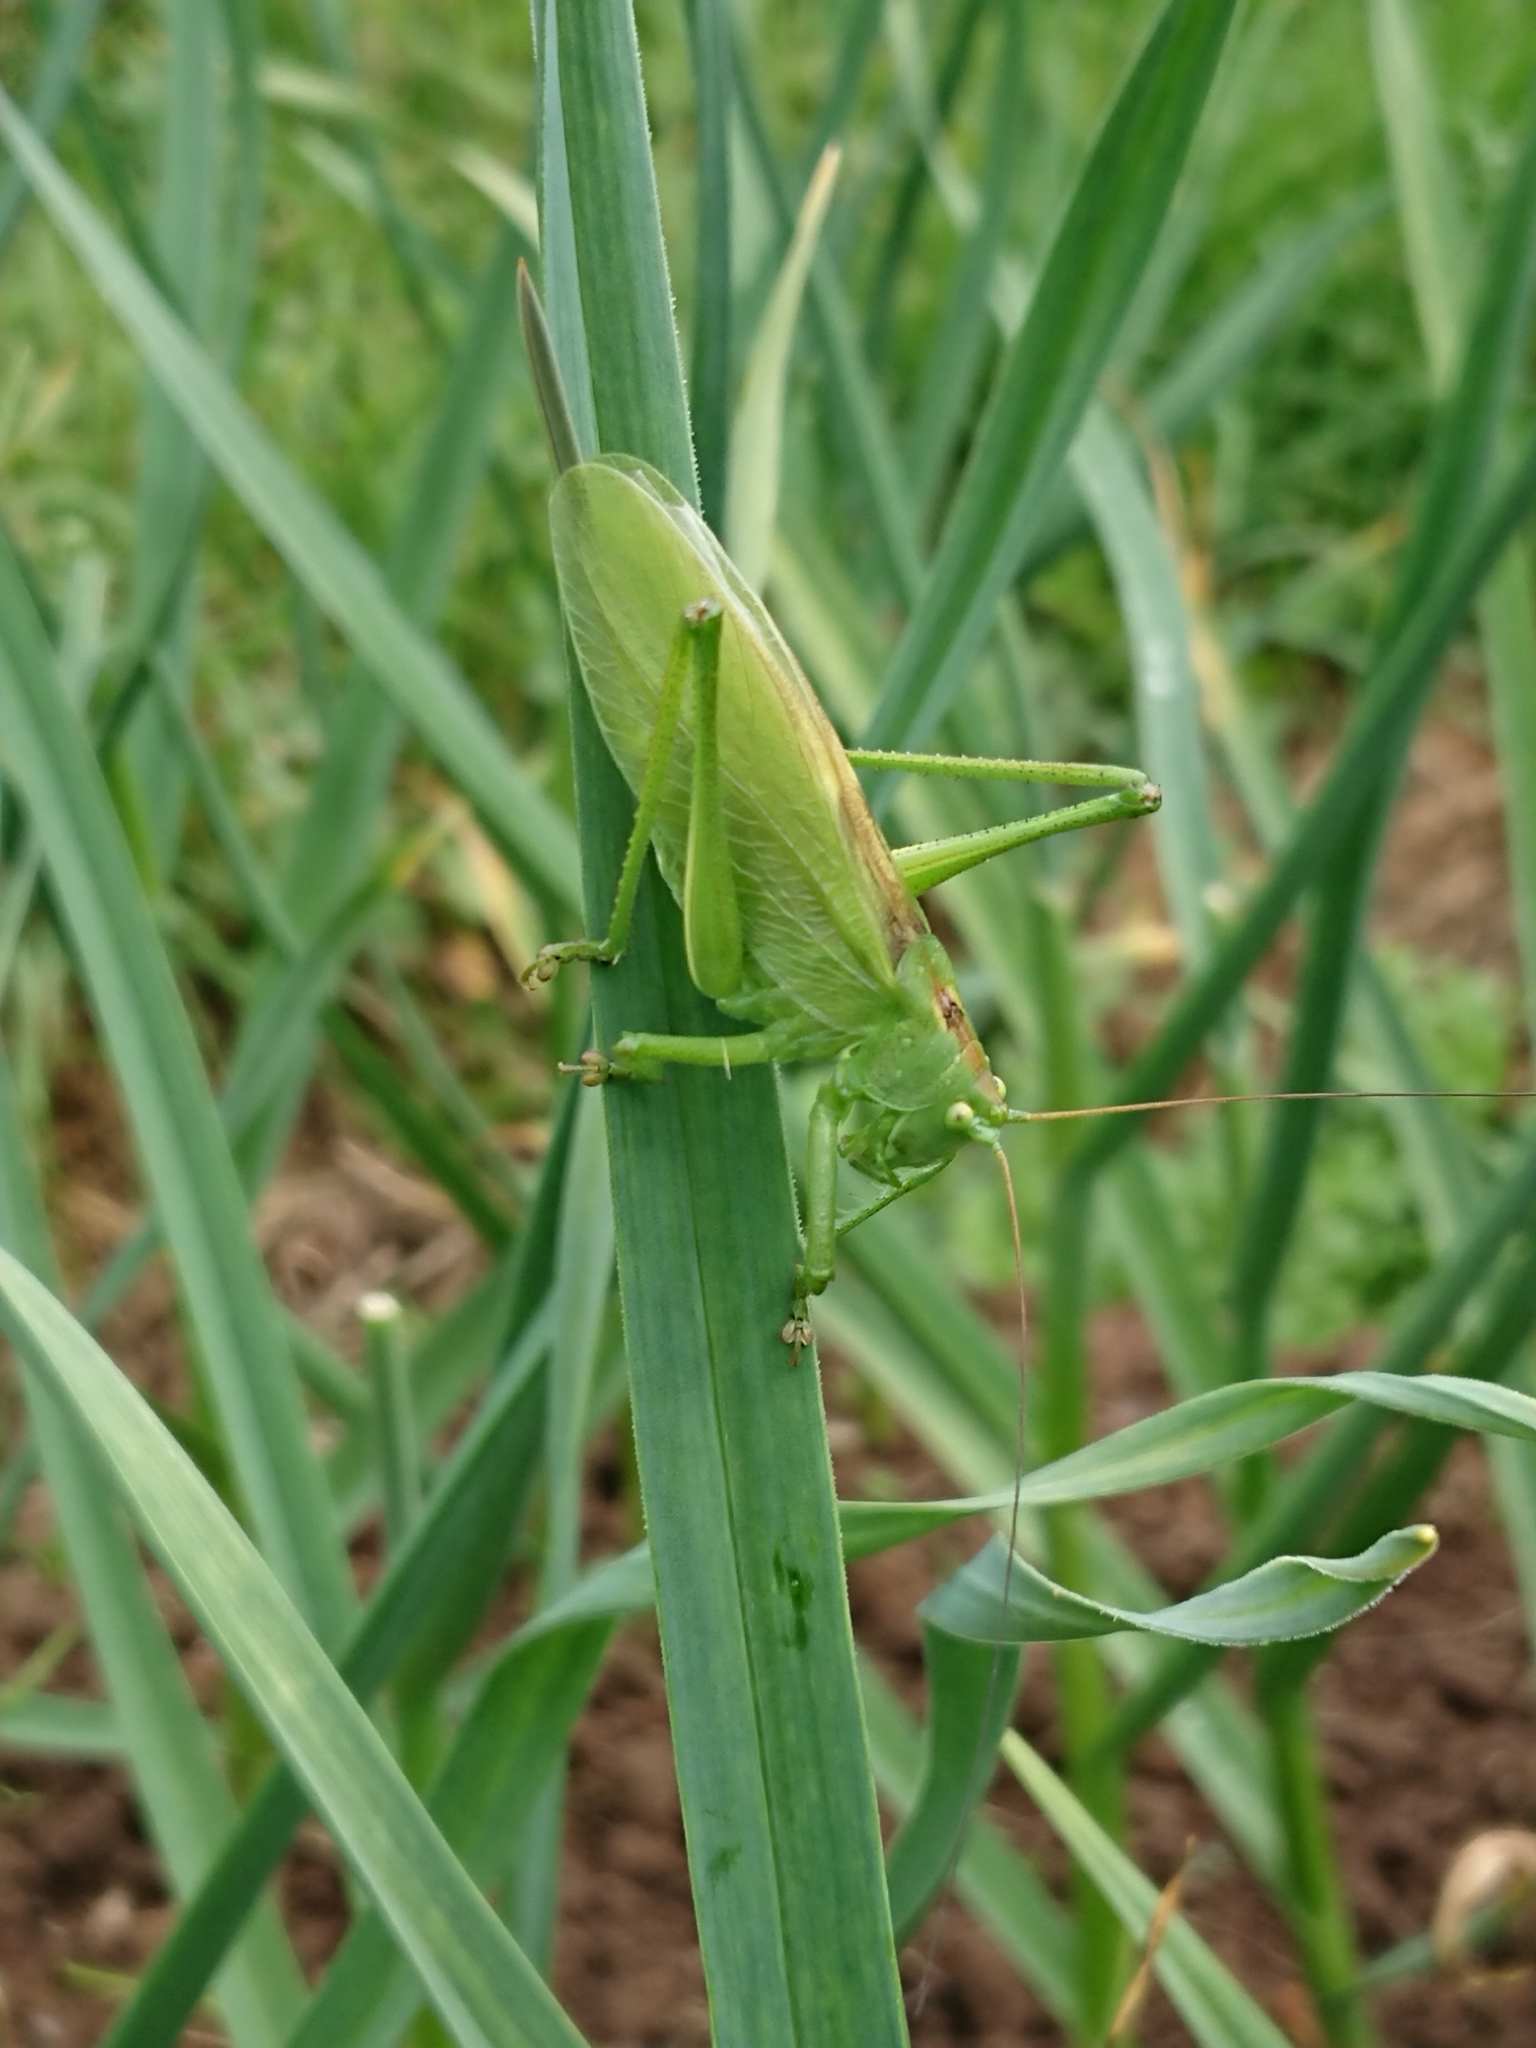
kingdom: Animalia
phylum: Arthropoda
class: Insecta
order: Orthoptera
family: Tettigoniidae
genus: Tettigonia
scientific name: Tettigonia cantans
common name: Upland green bush-cricket
